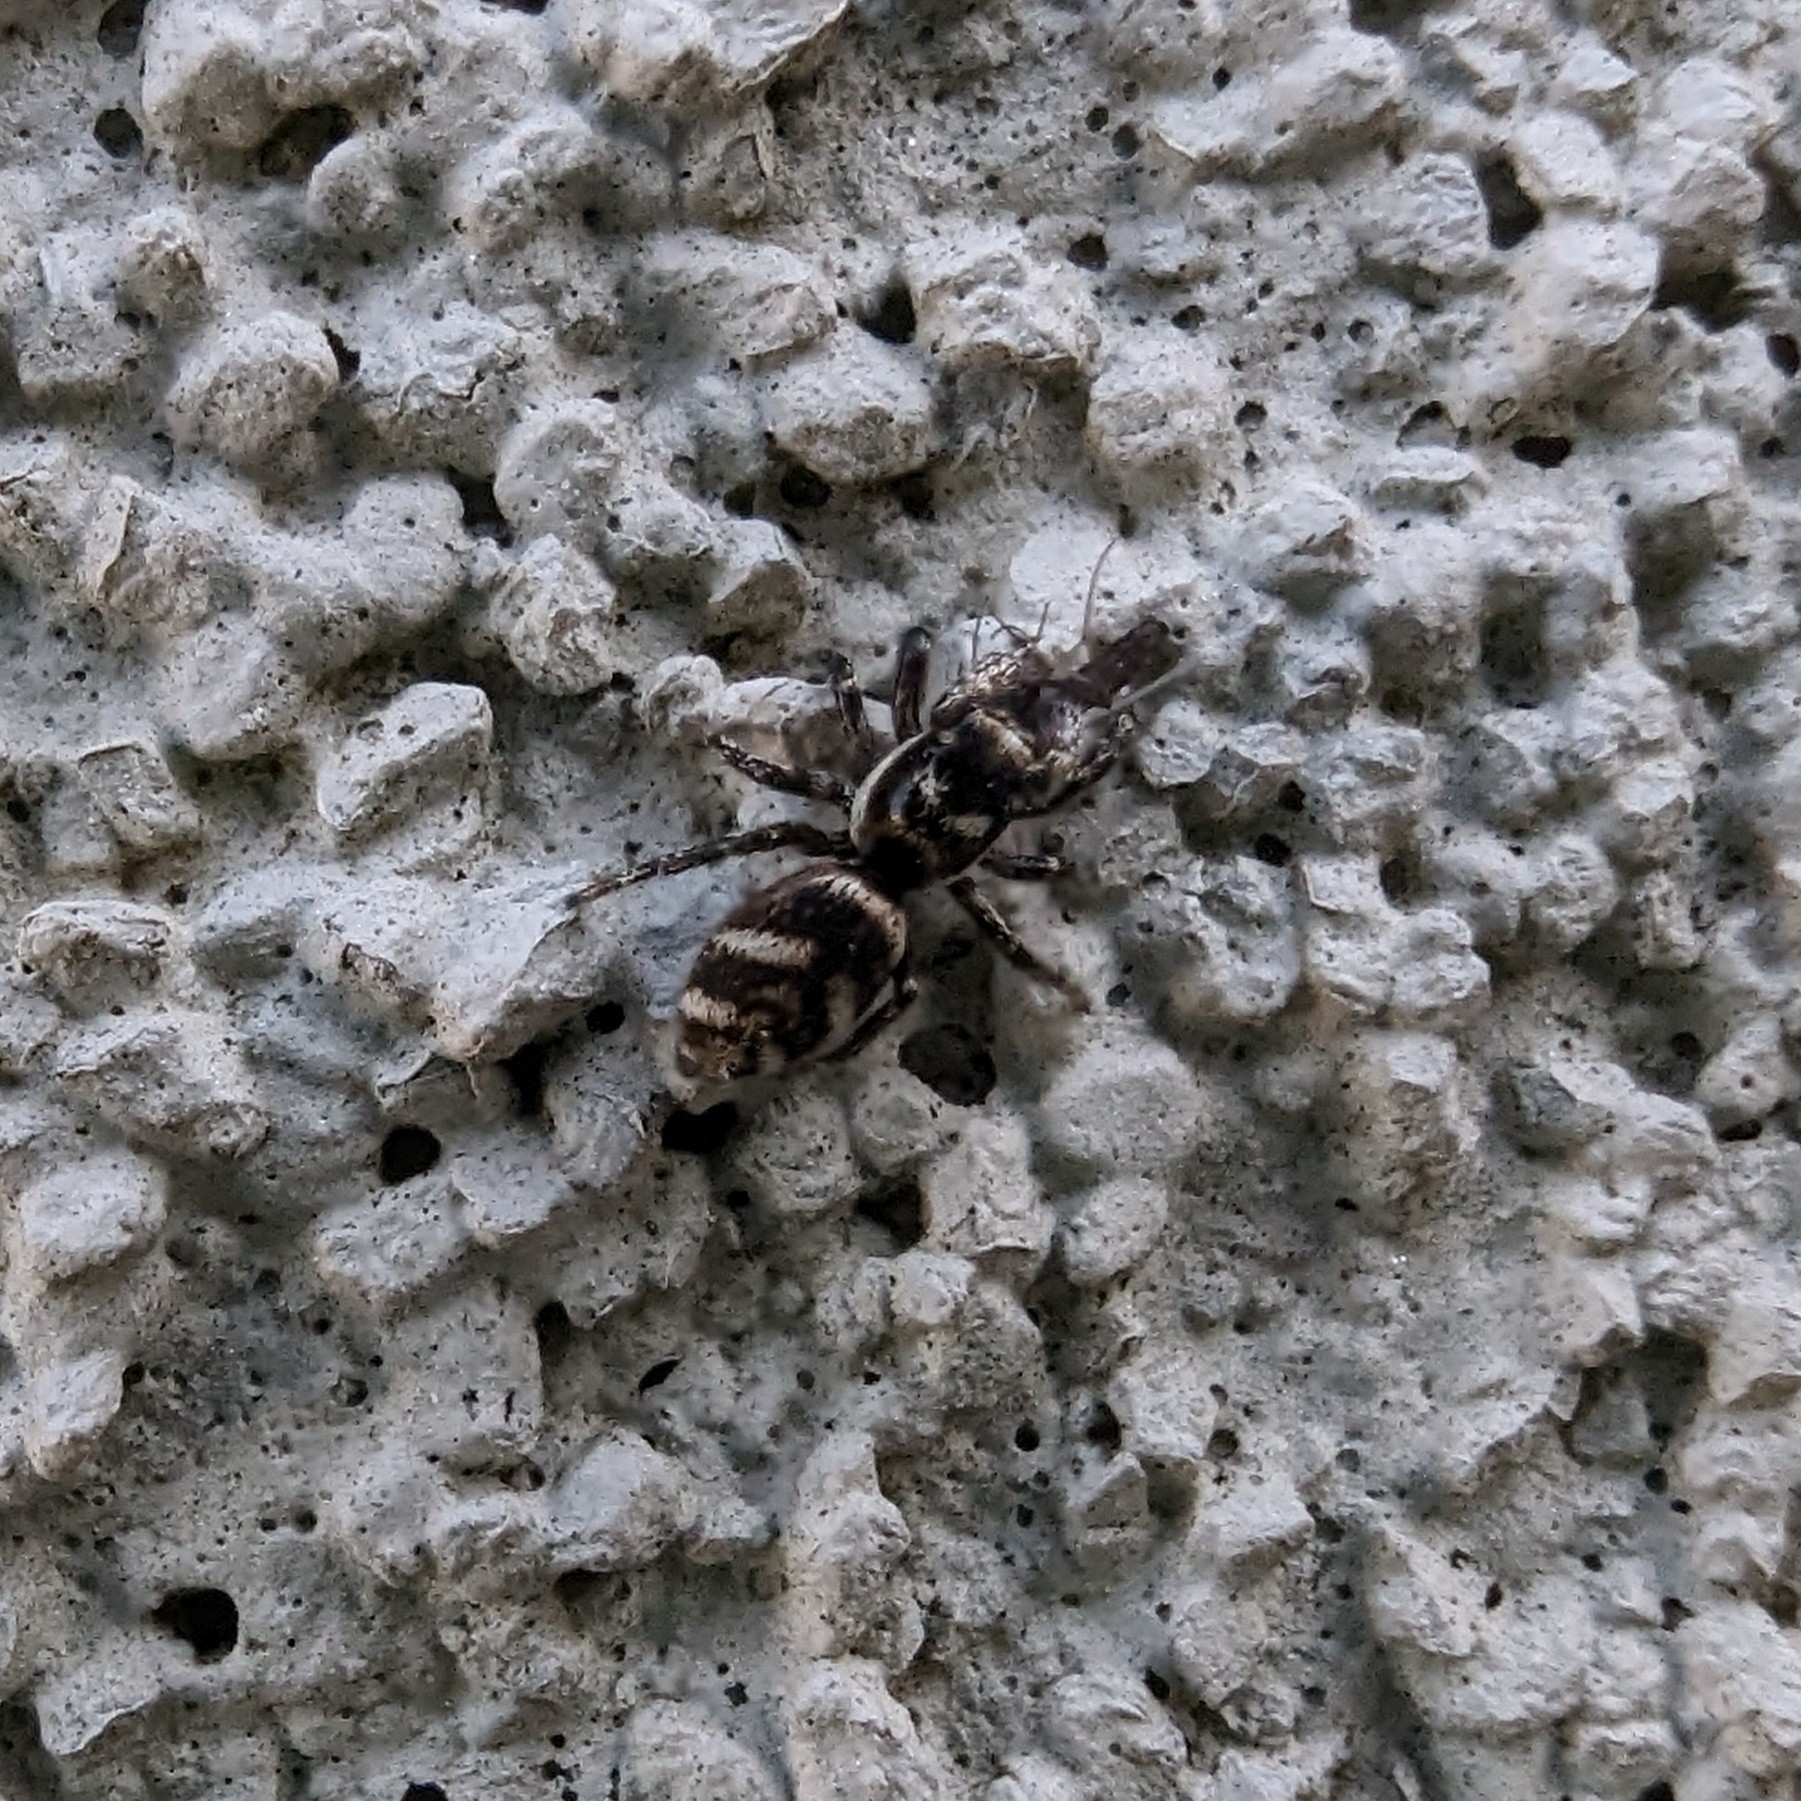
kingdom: Animalia
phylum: Arthropoda
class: Arachnida
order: Araneae
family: Salticidae
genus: Salticus
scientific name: Salticus scenicus
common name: Zebra jumper
